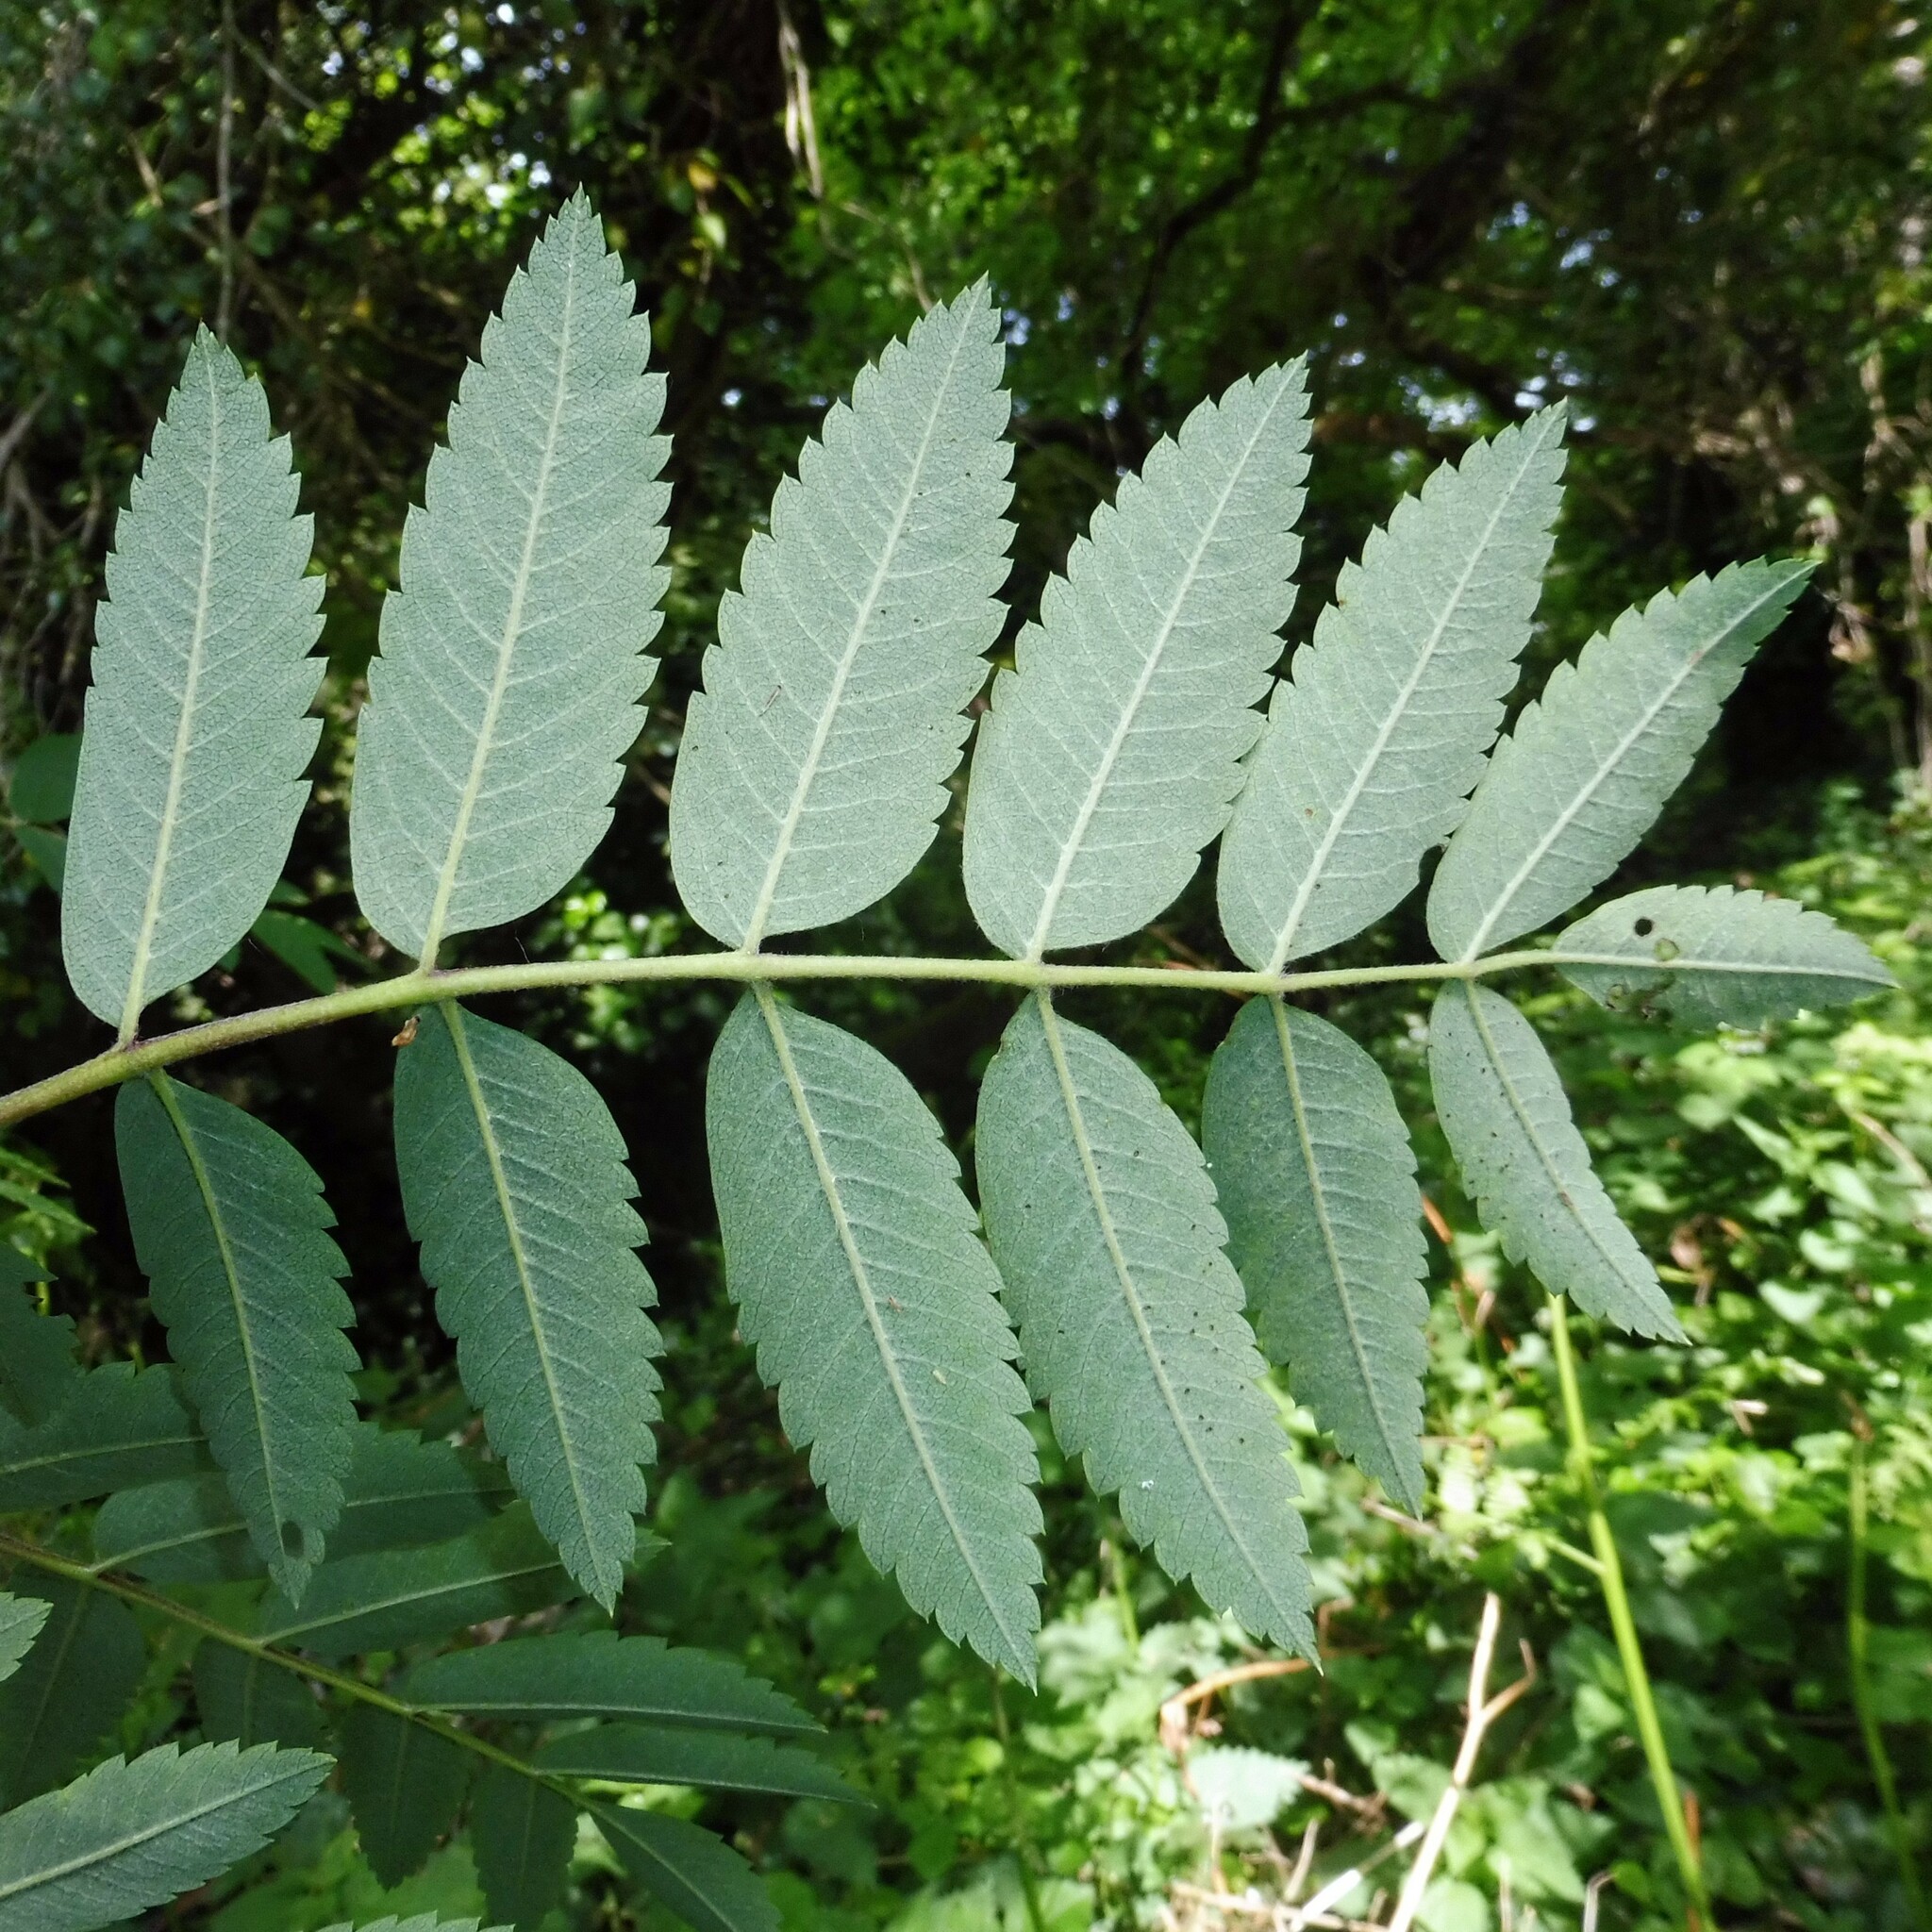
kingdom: Plantae
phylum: Tracheophyta
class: Magnoliopsida
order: Rosales
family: Rosaceae
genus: Sorbus
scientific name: Sorbus aucuparia
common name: Rowan
